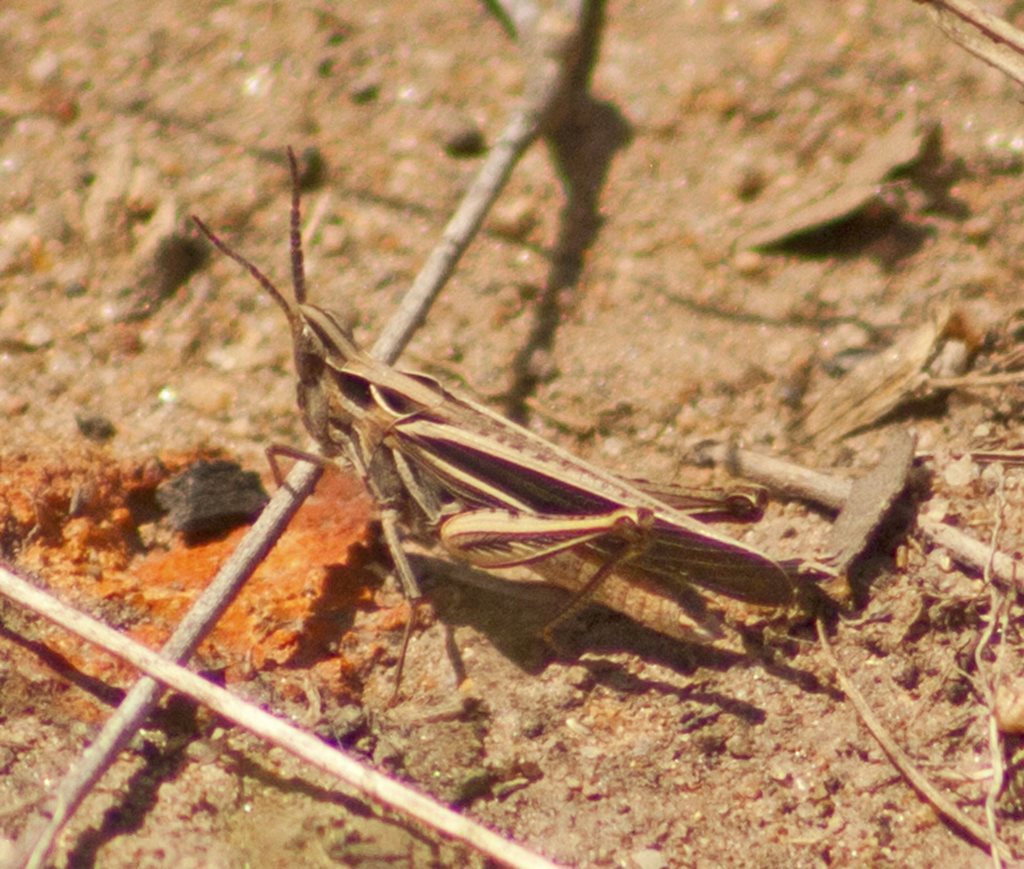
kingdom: Animalia
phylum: Arthropoda
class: Insecta
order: Orthoptera
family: Acrididae
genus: Froggattina
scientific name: Froggattina australis
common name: Froggatt's buzzer
